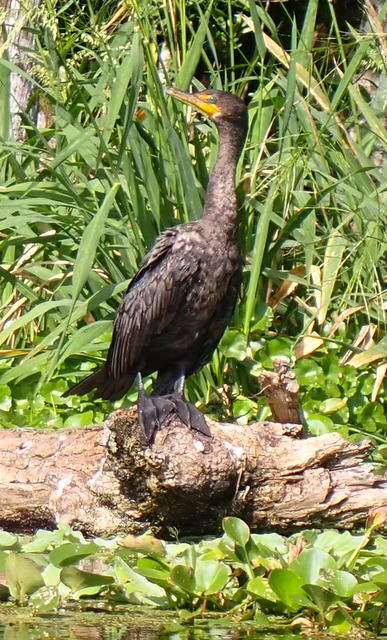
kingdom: Animalia
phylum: Chordata
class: Aves
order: Suliformes
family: Phalacrocoracidae
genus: Phalacrocorax
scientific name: Phalacrocorax auritus
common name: Double-crested cormorant
